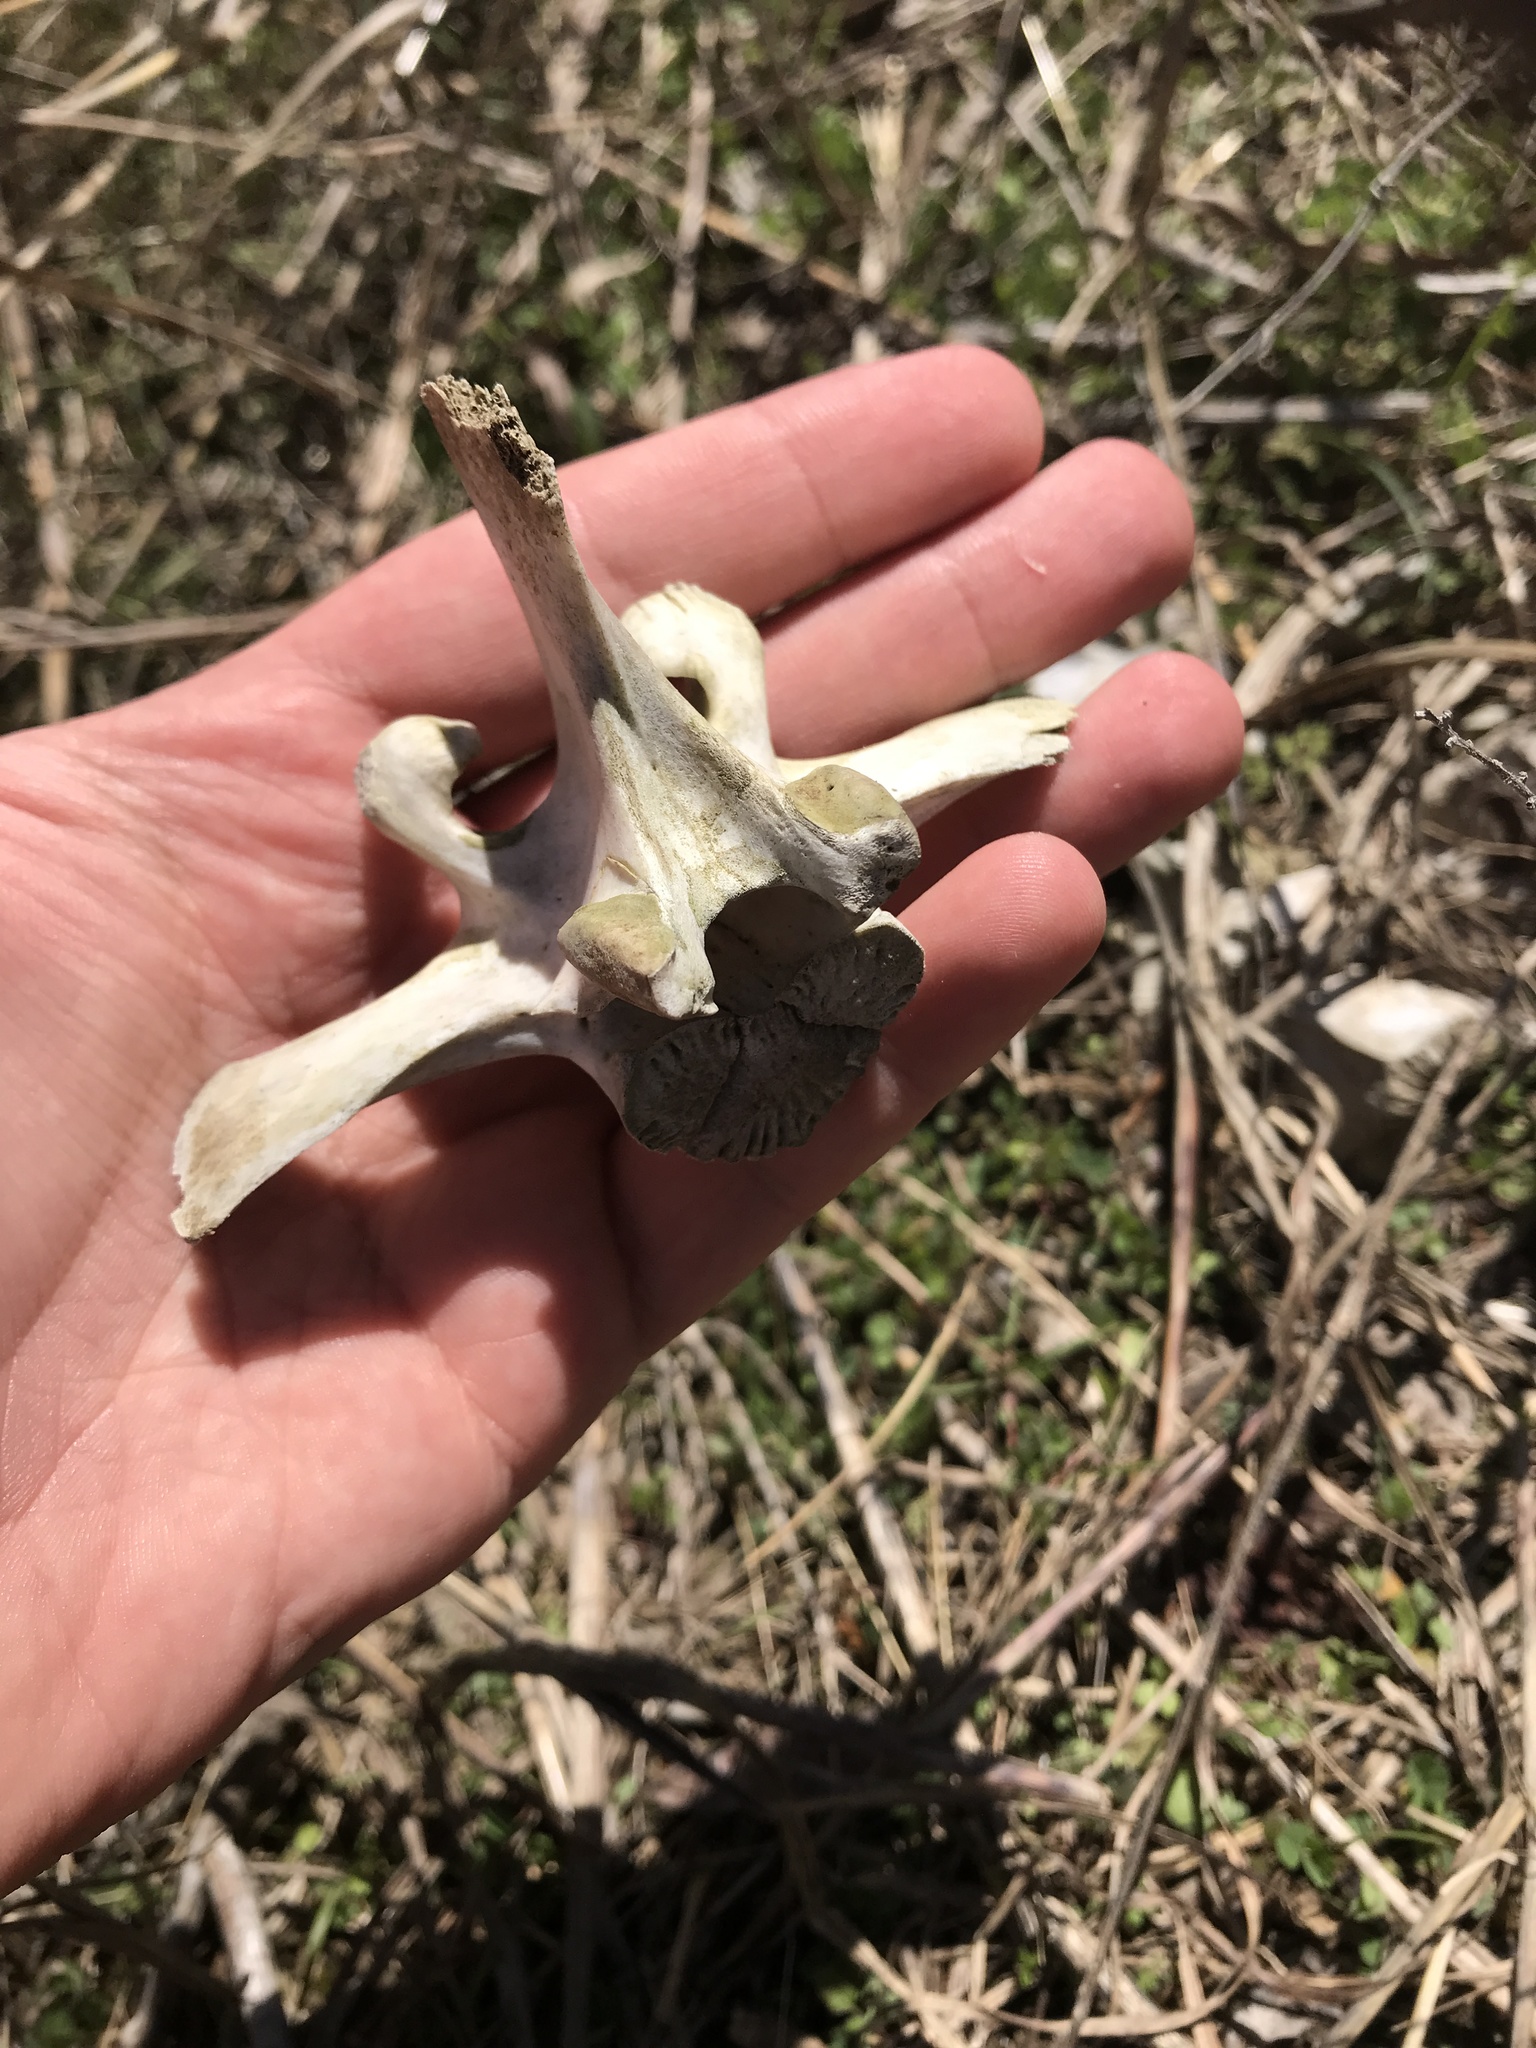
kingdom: Animalia
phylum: Chordata
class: Mammalia
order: Artiodactyla
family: Cervidae
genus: Odocoileus
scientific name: Odocoileus virginianus
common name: White-tailed deer
